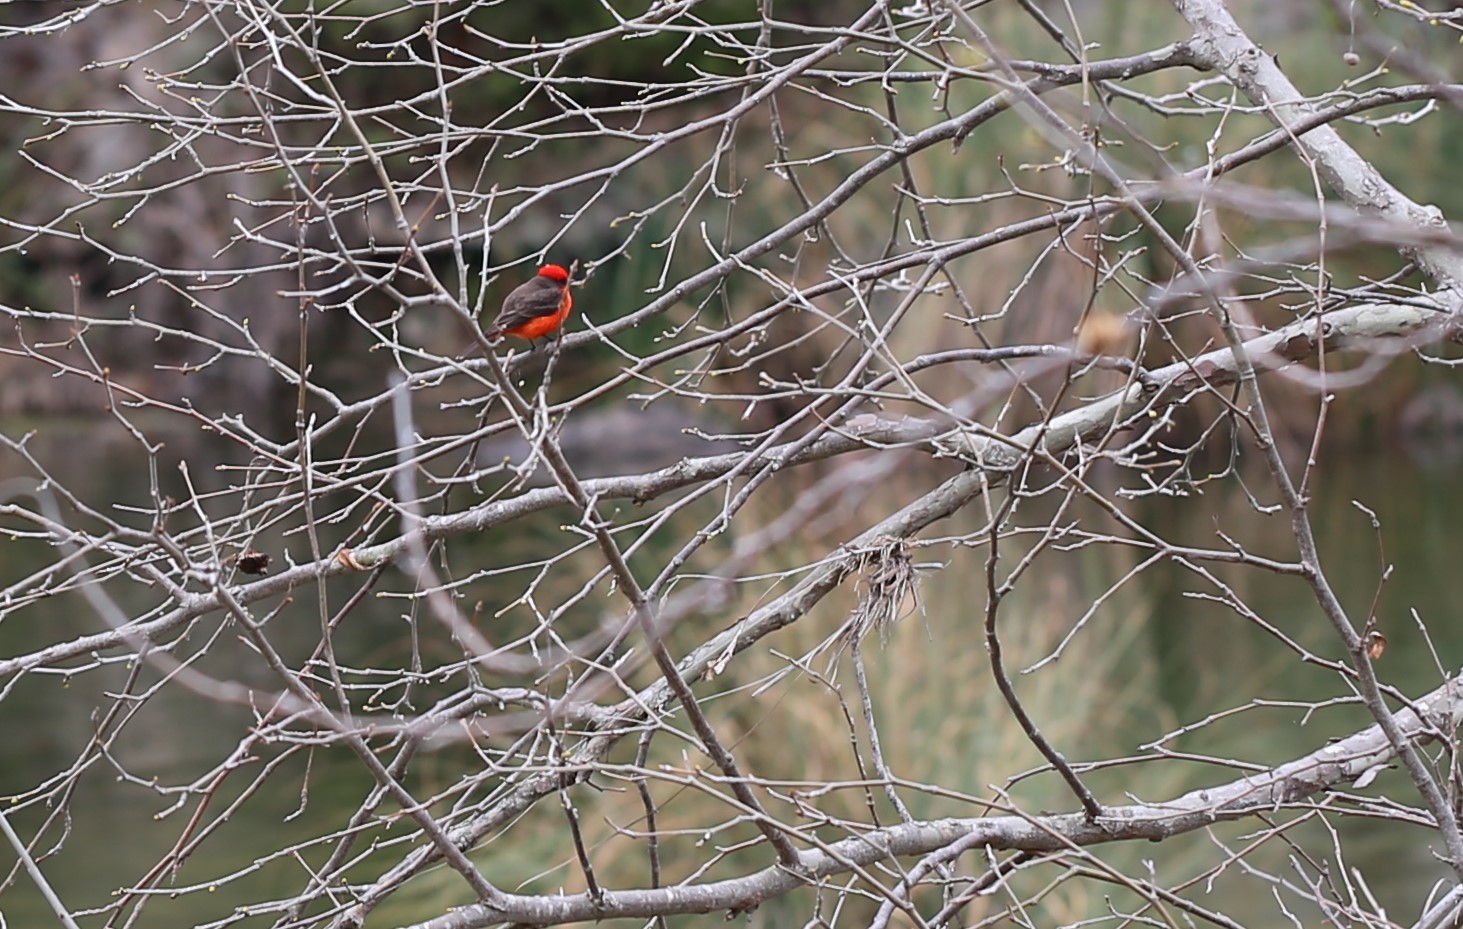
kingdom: Animalia
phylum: Chordata
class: Aves
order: Passeriformes
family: Tyrannidae
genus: Pyrocephalus
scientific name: Pyrocephalus rubinus
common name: Vermilion flycatcher
